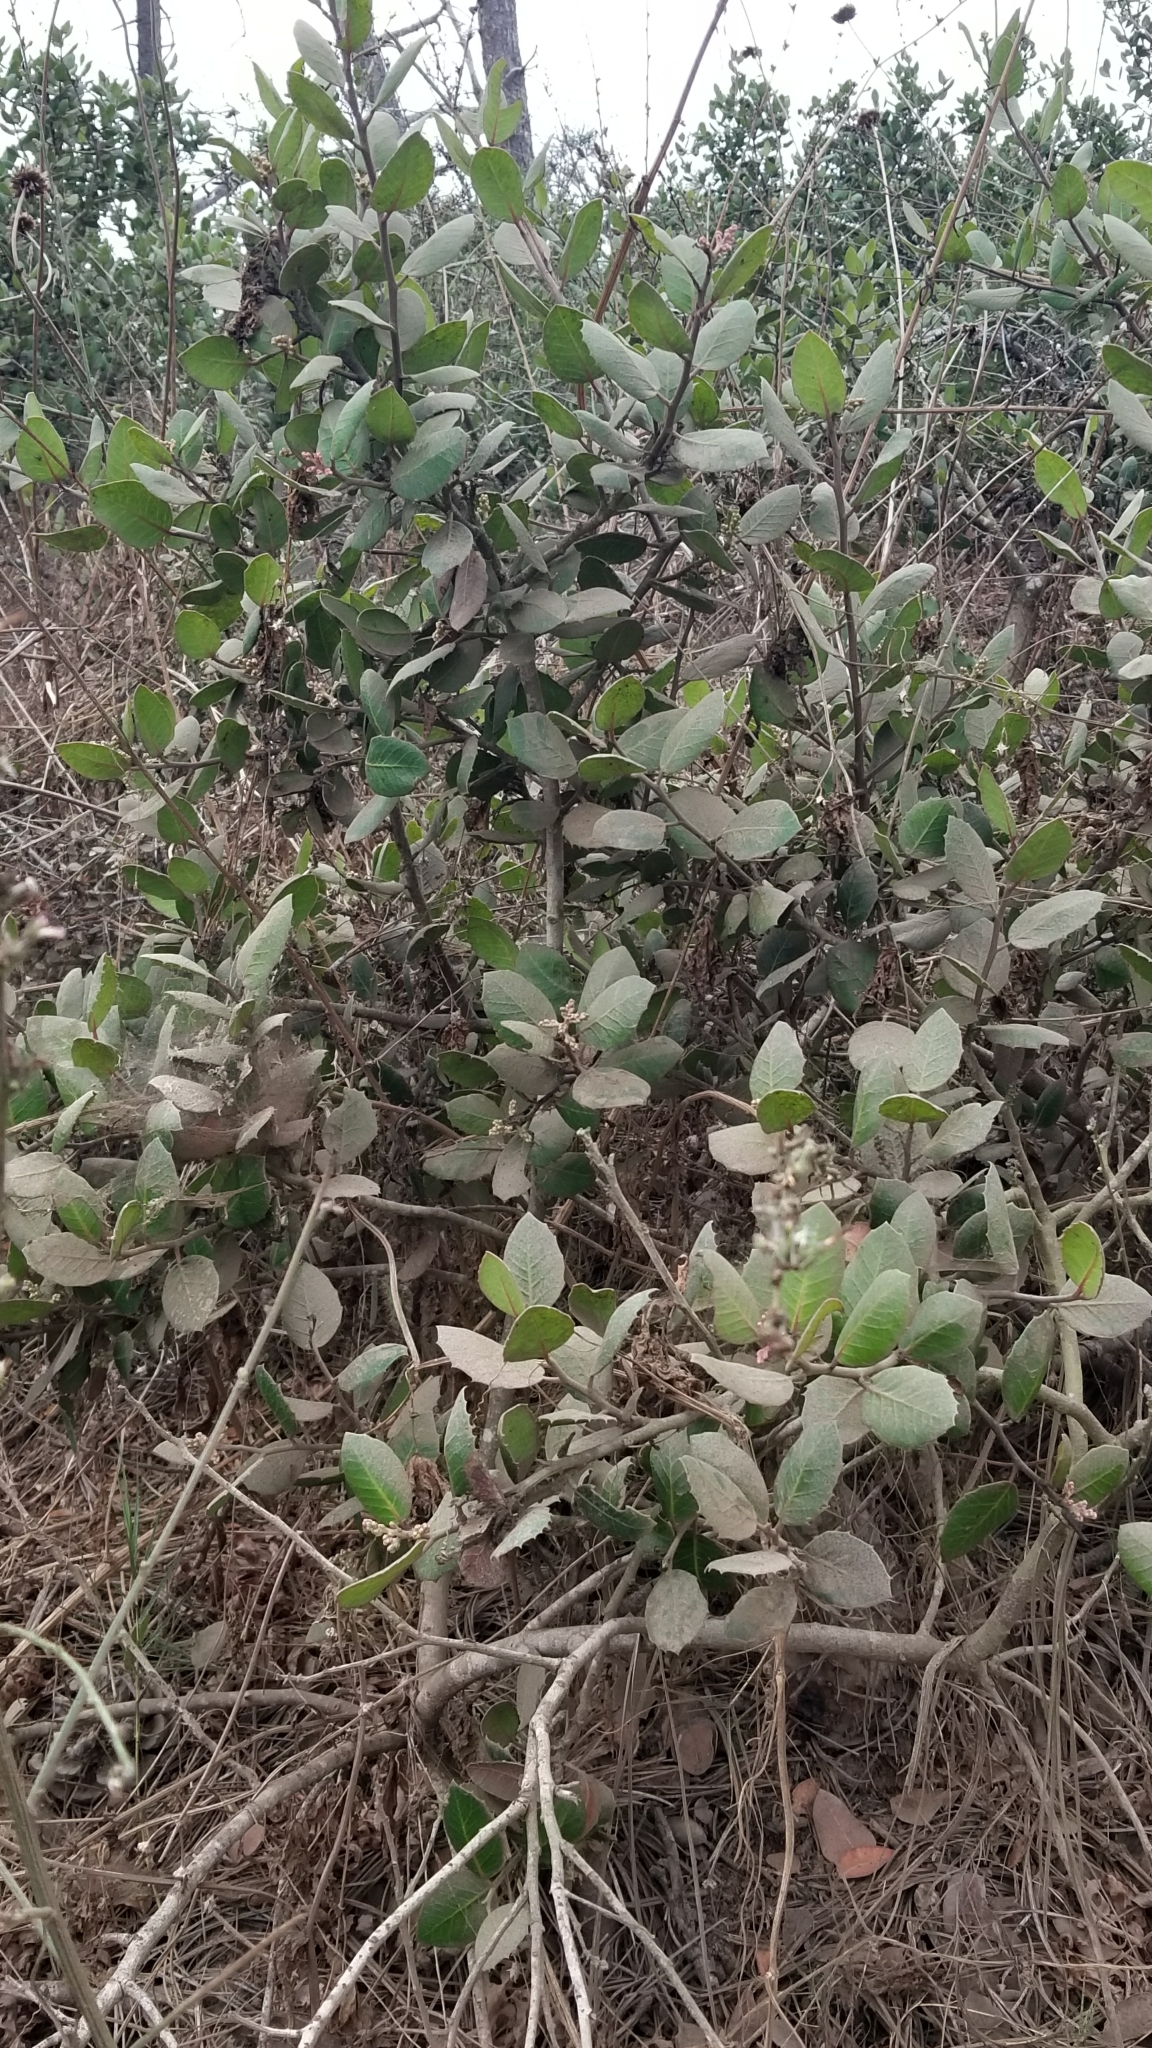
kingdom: Plantae
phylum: Tracheophyta
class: Magnoliopsida
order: Sapindales
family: Anacardiaceae
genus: Rhus
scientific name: Rhus integrifolia
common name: Lemonade sumac
